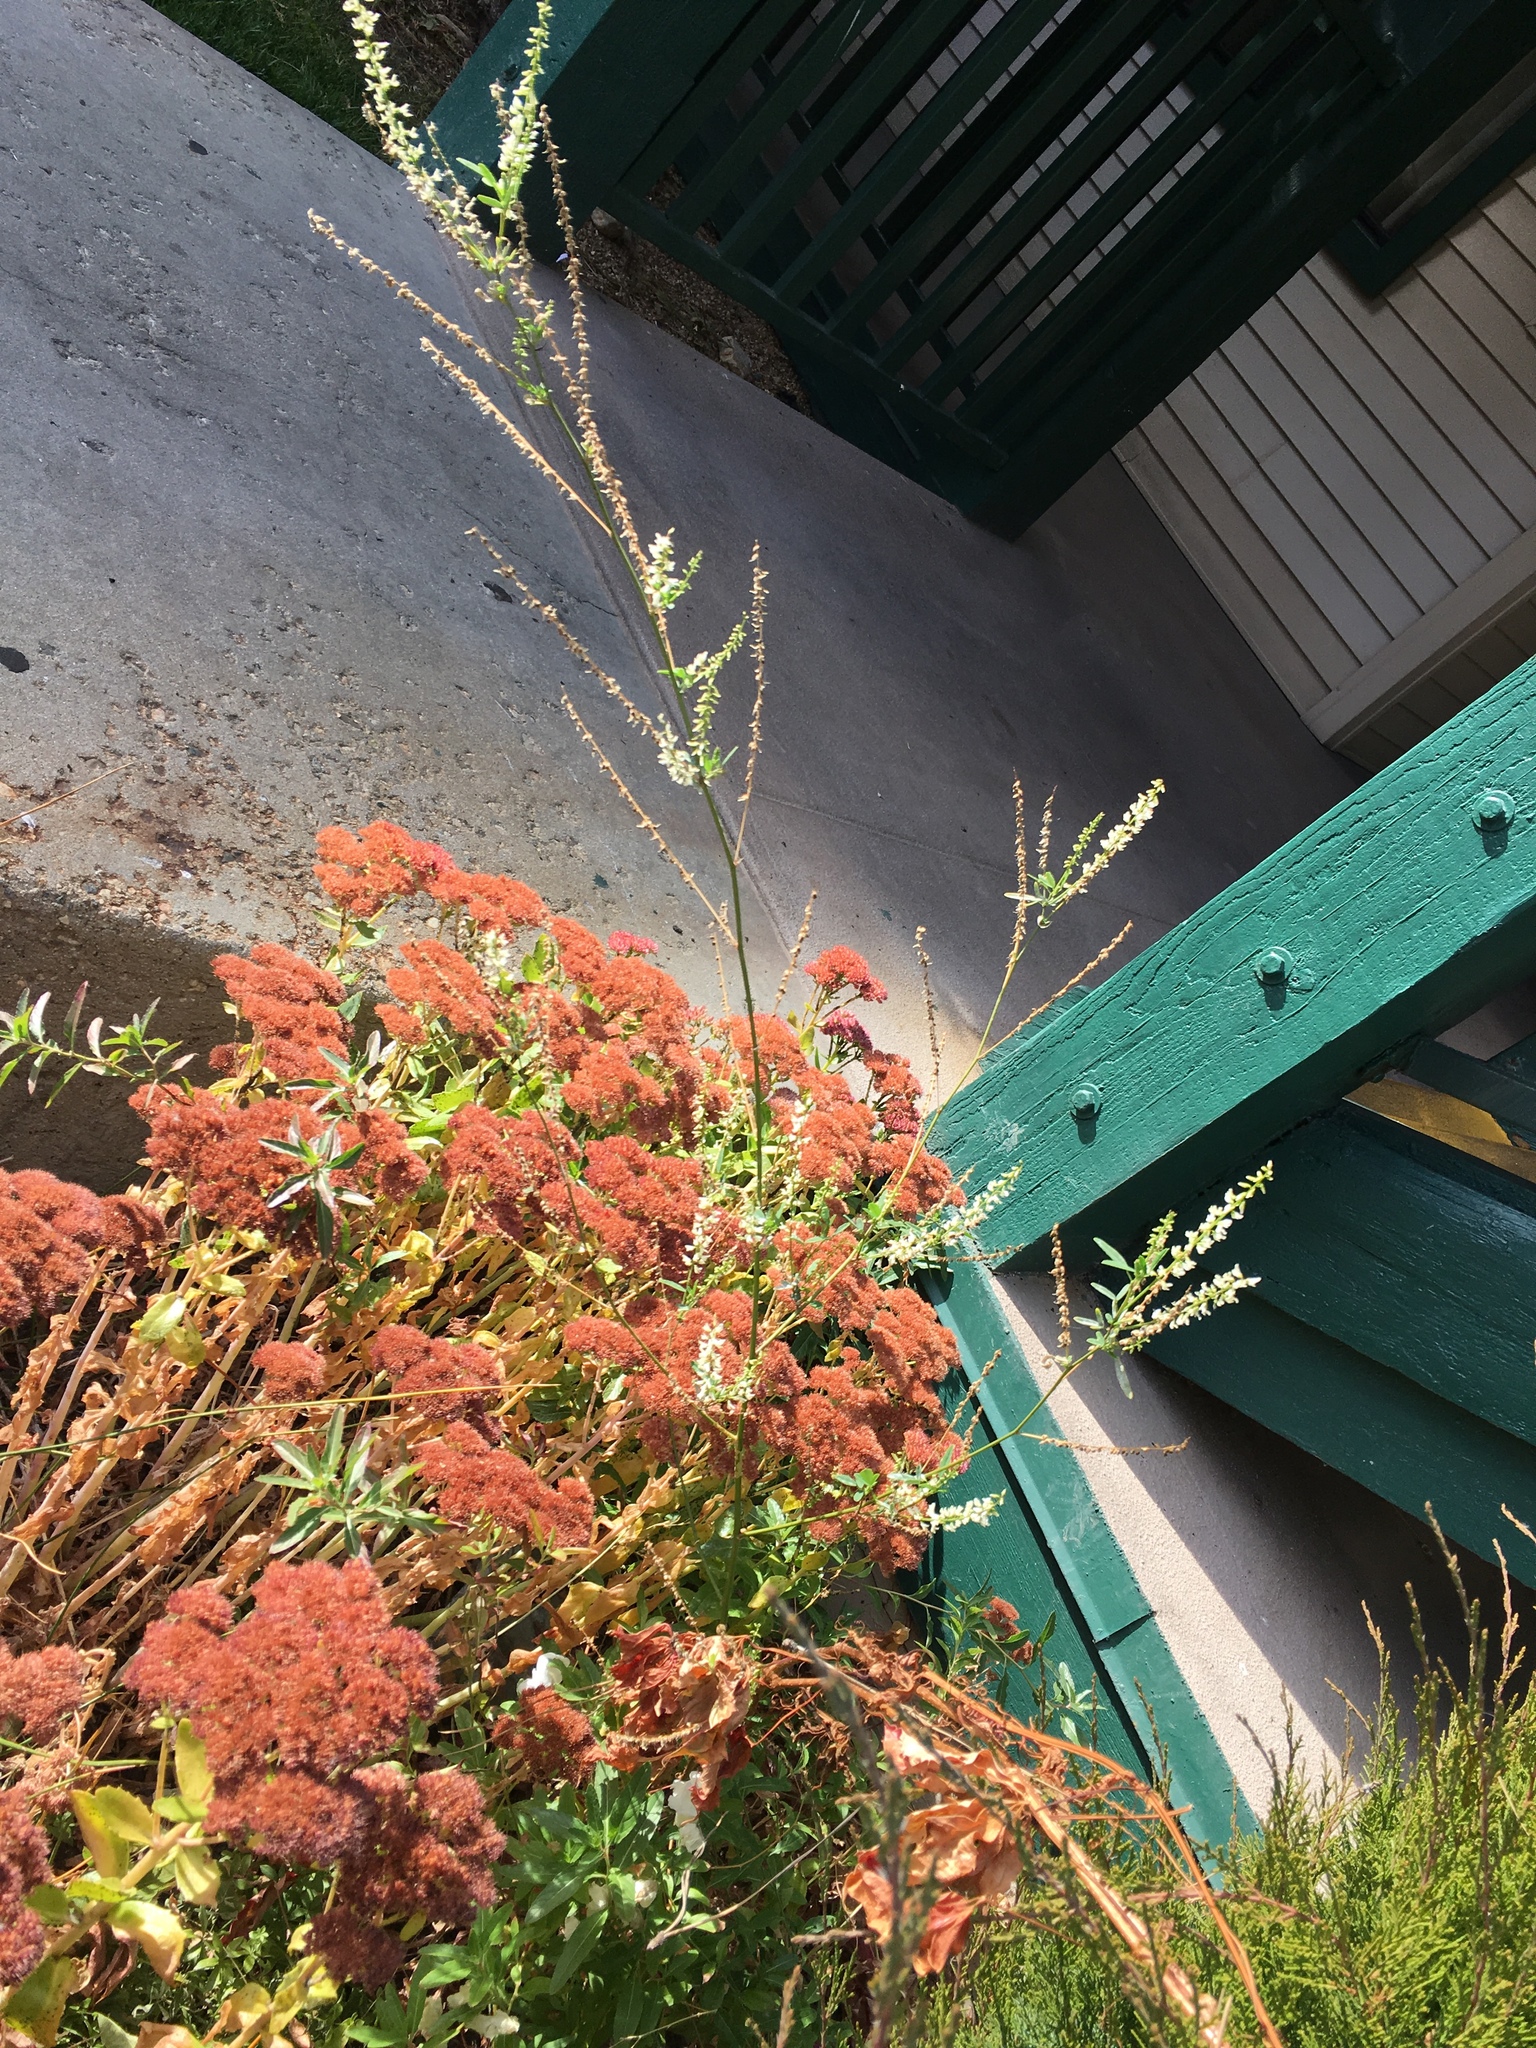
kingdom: Plantae
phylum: Tracheophyta
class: Magnoliopsida
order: Fabales
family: Fabaceae
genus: Melilotus
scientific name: Melilotus albus
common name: White melilot
